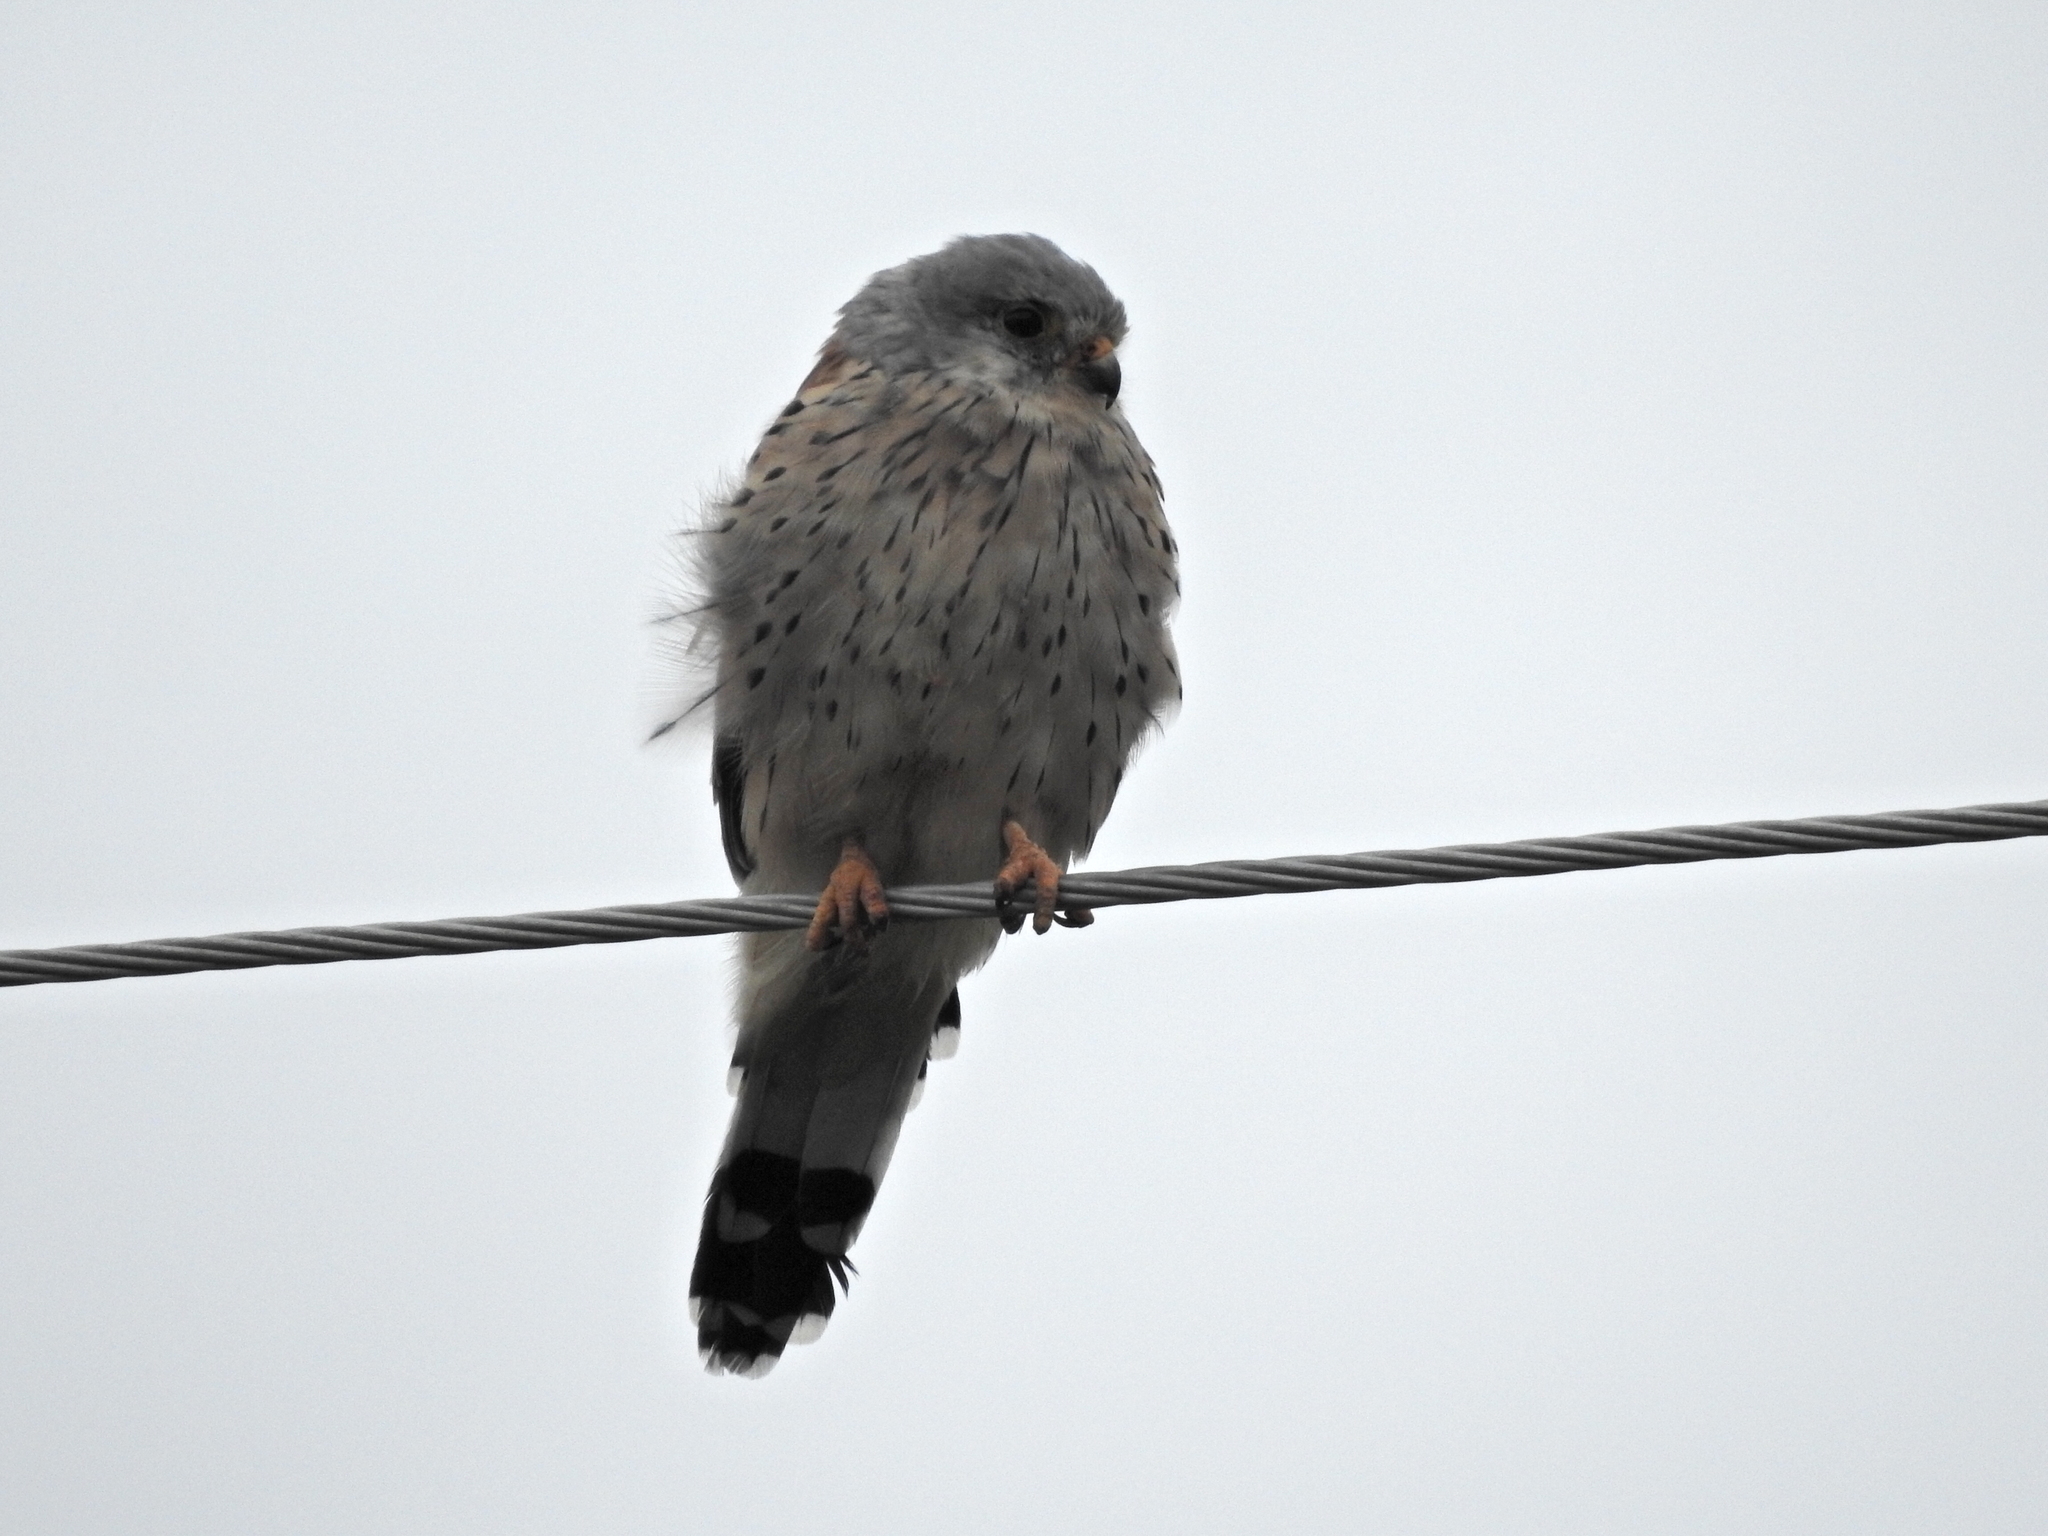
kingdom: Animalia
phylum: Chordata
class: Aves
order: Falconiformes
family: Falconidae
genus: Falco
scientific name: Falco tinnunculus
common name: Common kestrel
